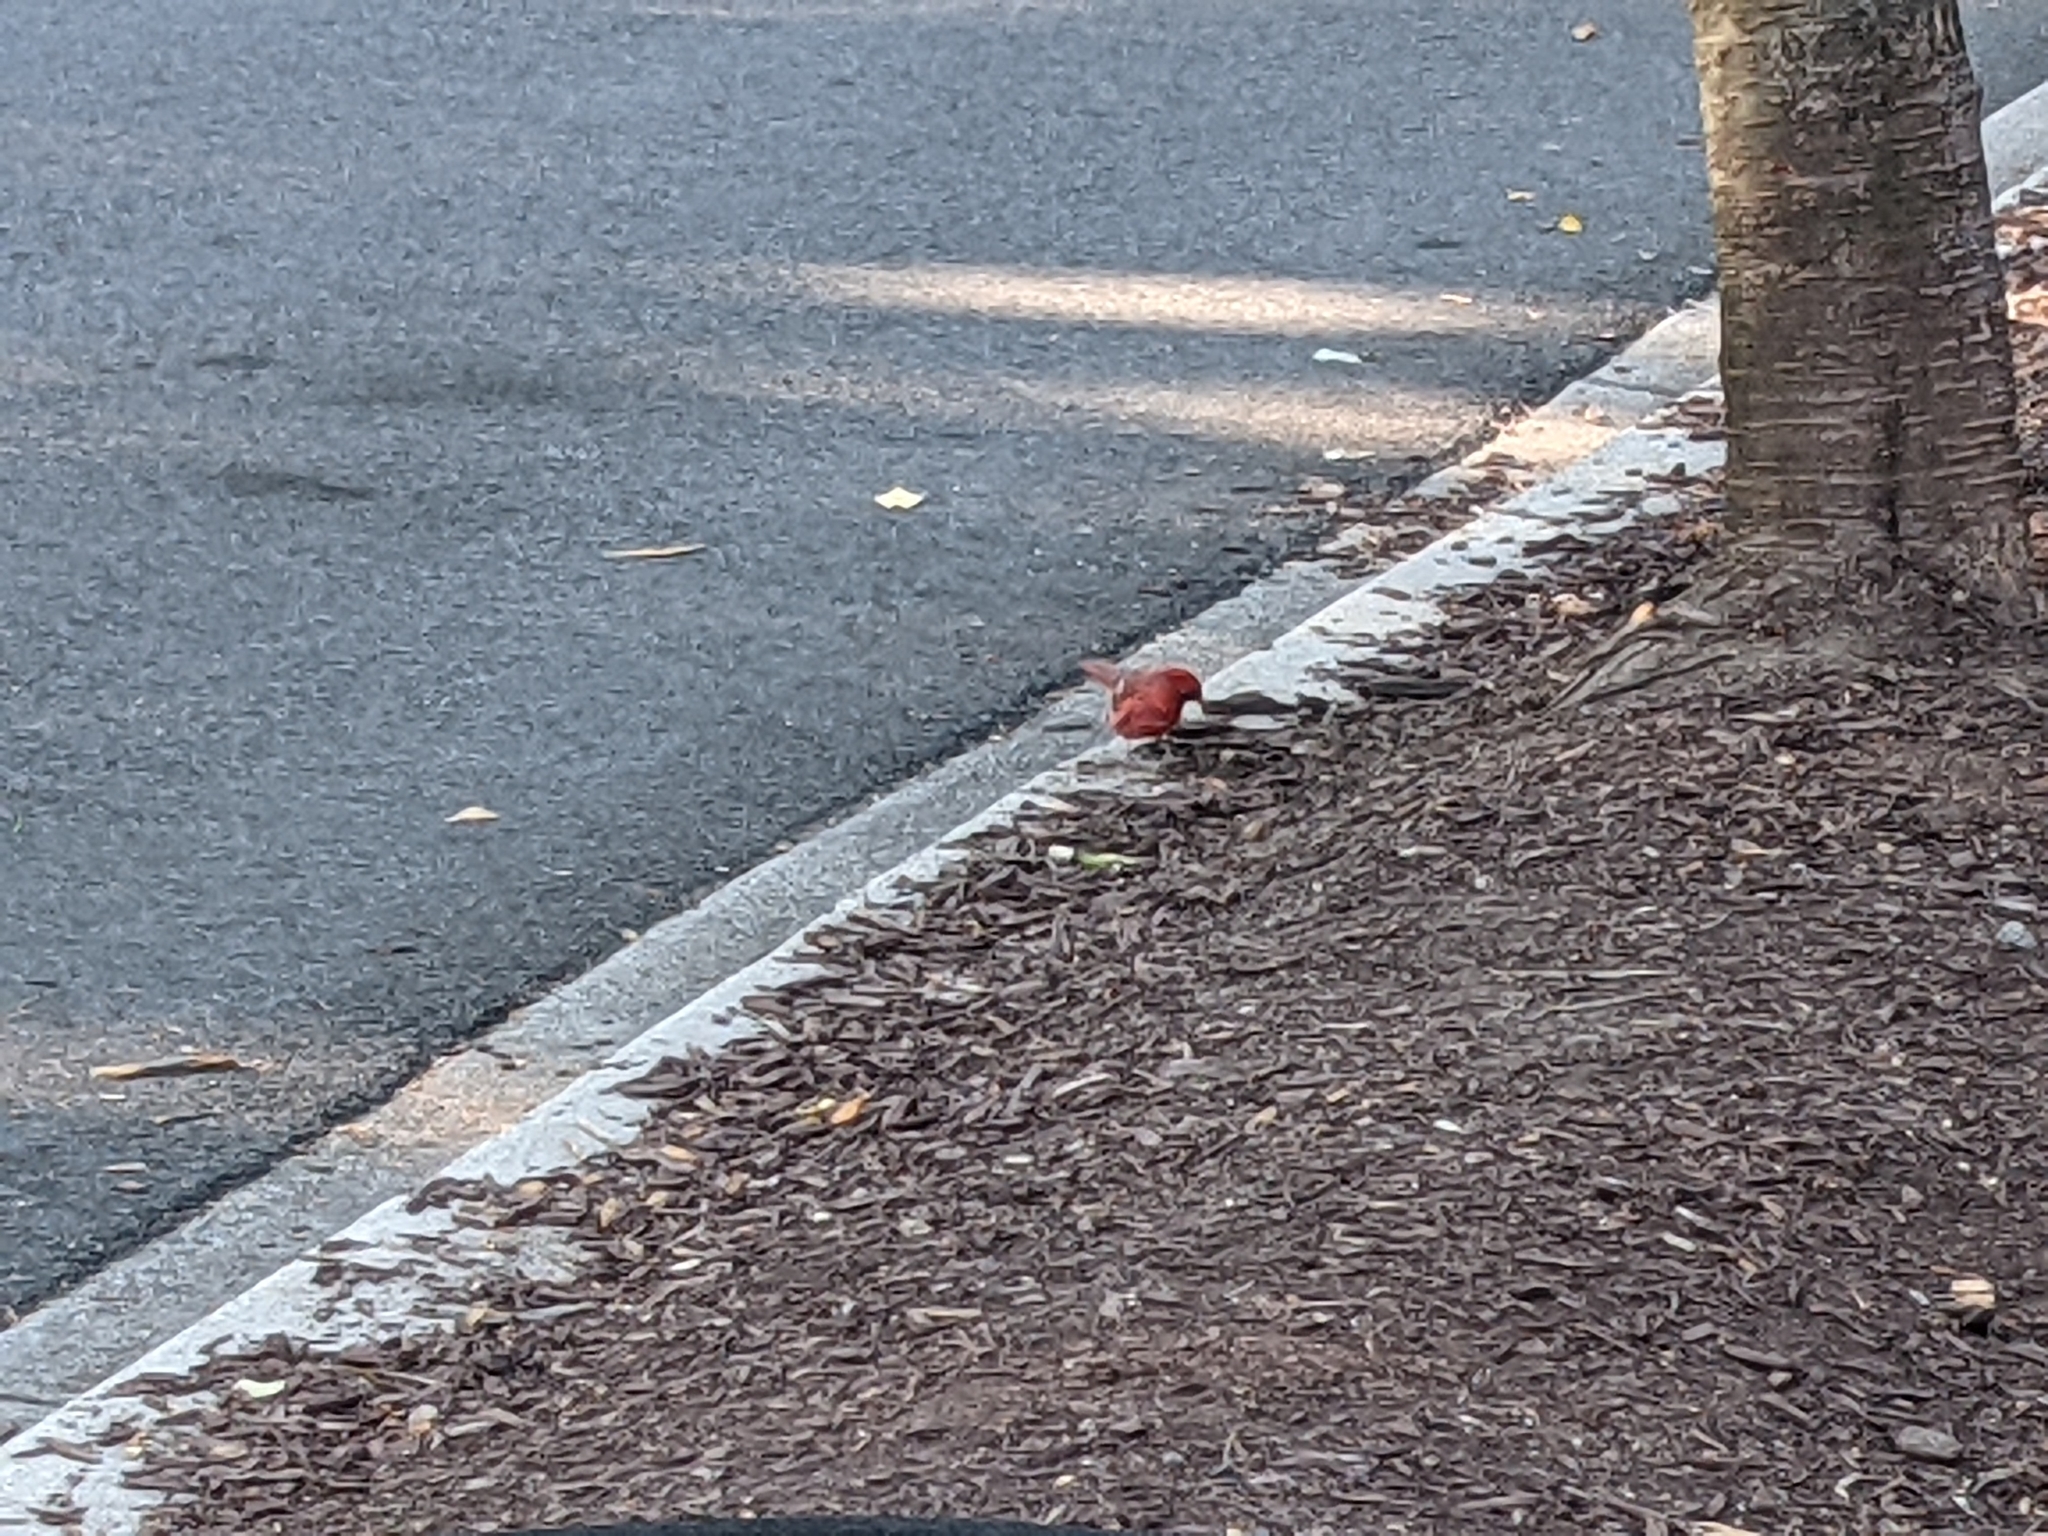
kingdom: Animalia
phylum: Chordata
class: Aves
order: Passeriformes
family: Cardinalidae
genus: Cardinalis
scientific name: Cardinalis cardinalis
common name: Northern cardinal
